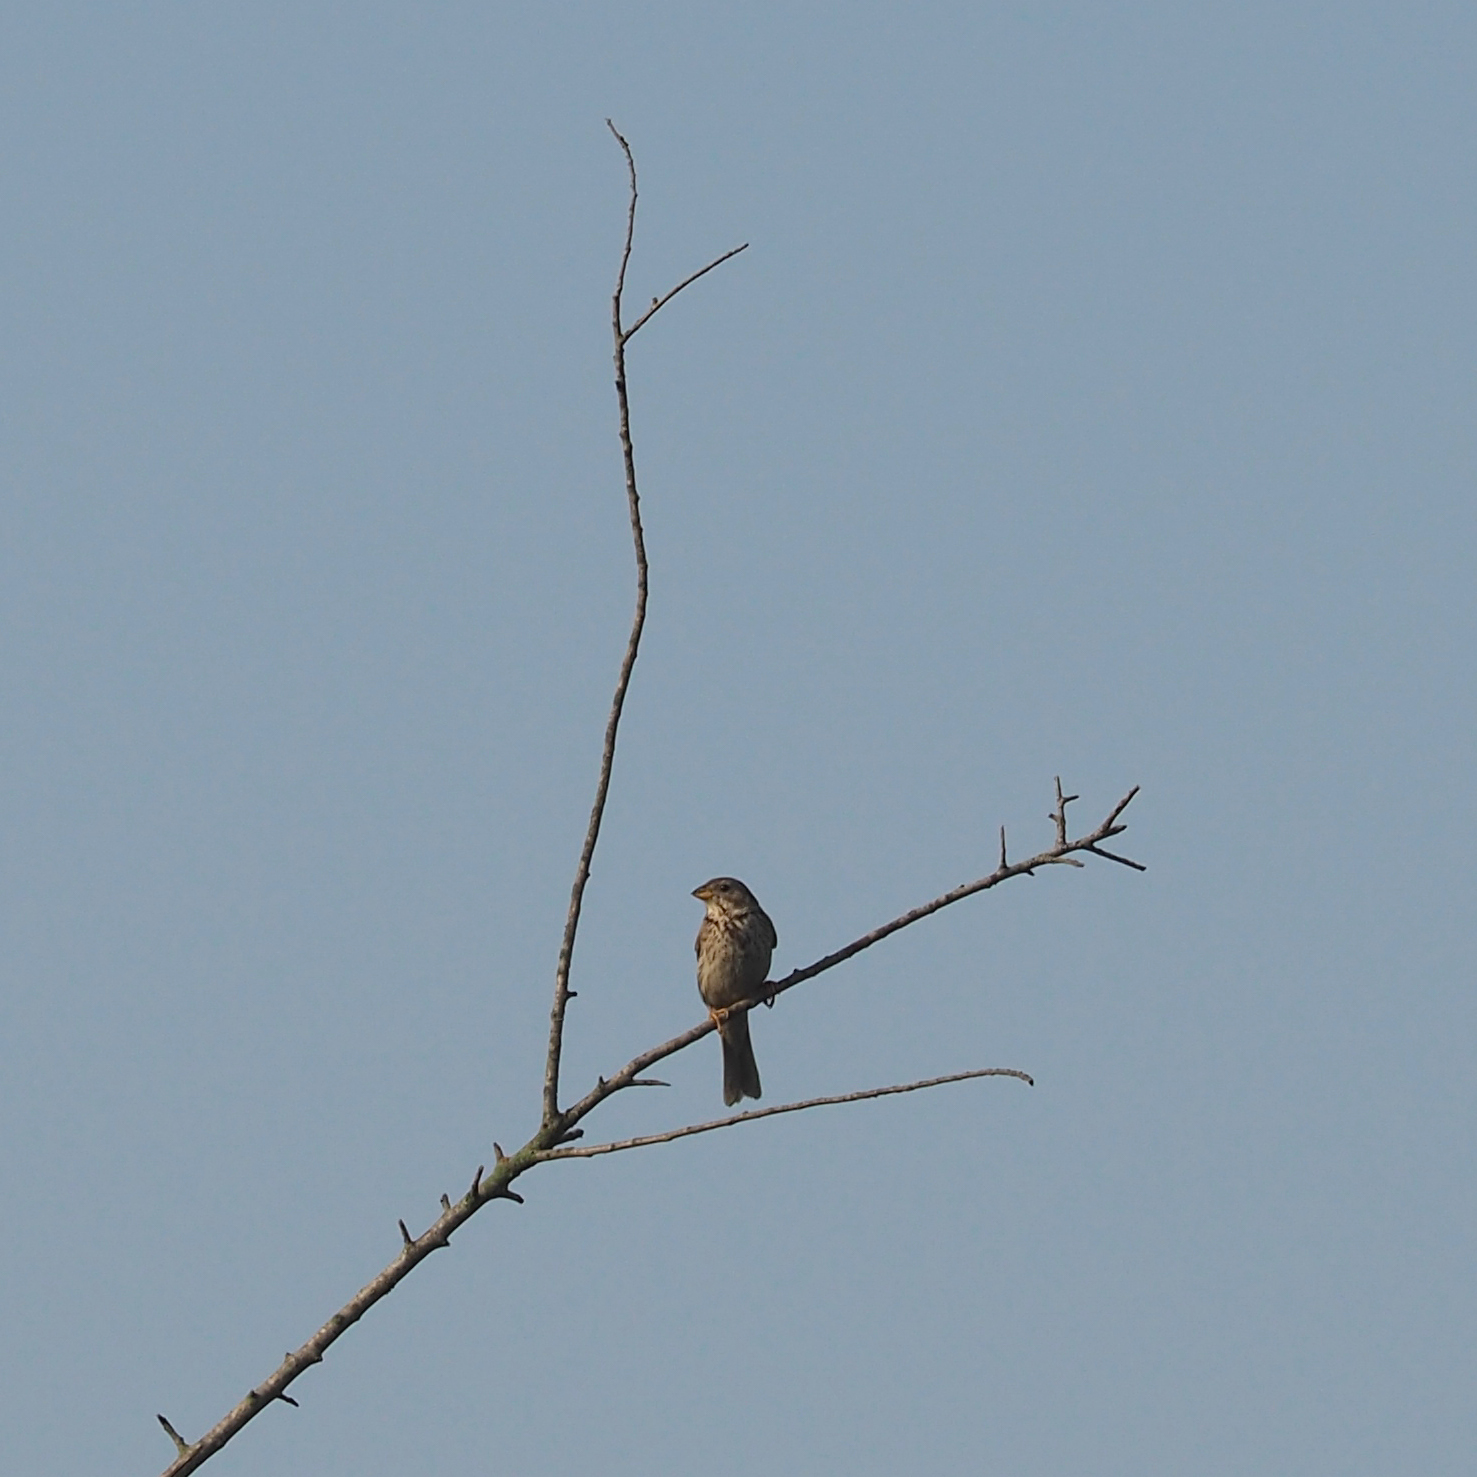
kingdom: Animalia
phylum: Chordata
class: Aves
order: Passeriformes
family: Emberizidae
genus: Emberiza
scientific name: Emberiza calandra
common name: Corn bunting
